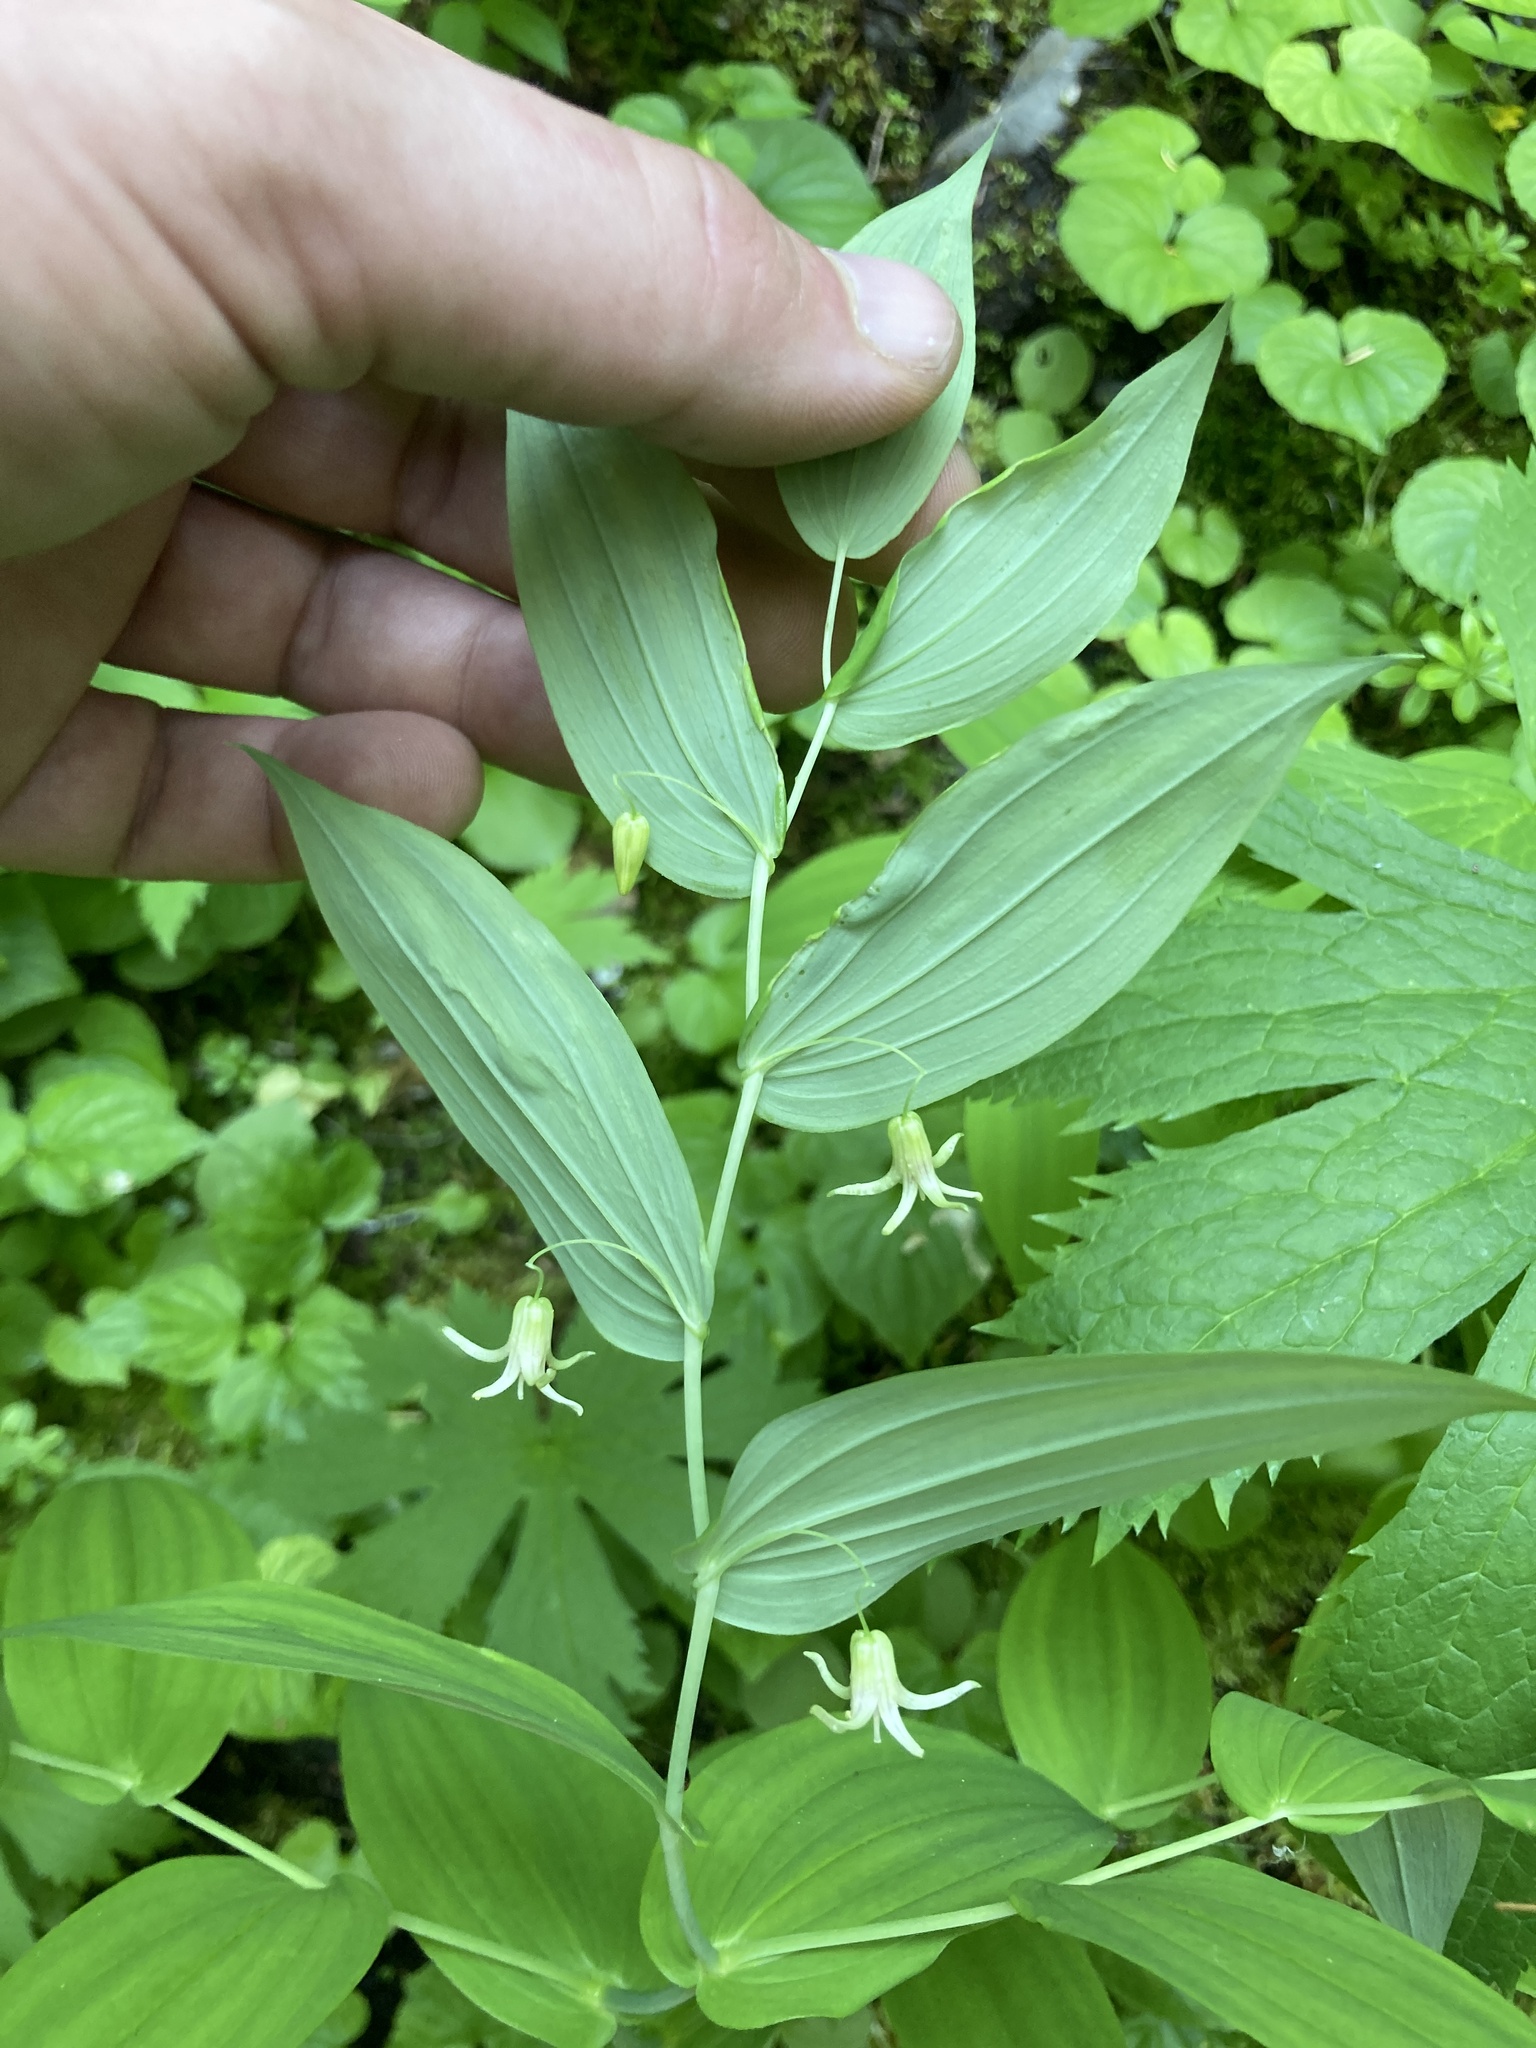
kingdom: Plantae
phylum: Tracheophyta
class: Liliopsida
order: Liliales
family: Liliaceae
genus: Streptopus
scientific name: Streptopus amplexifolius
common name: Clasp twisted stalk
